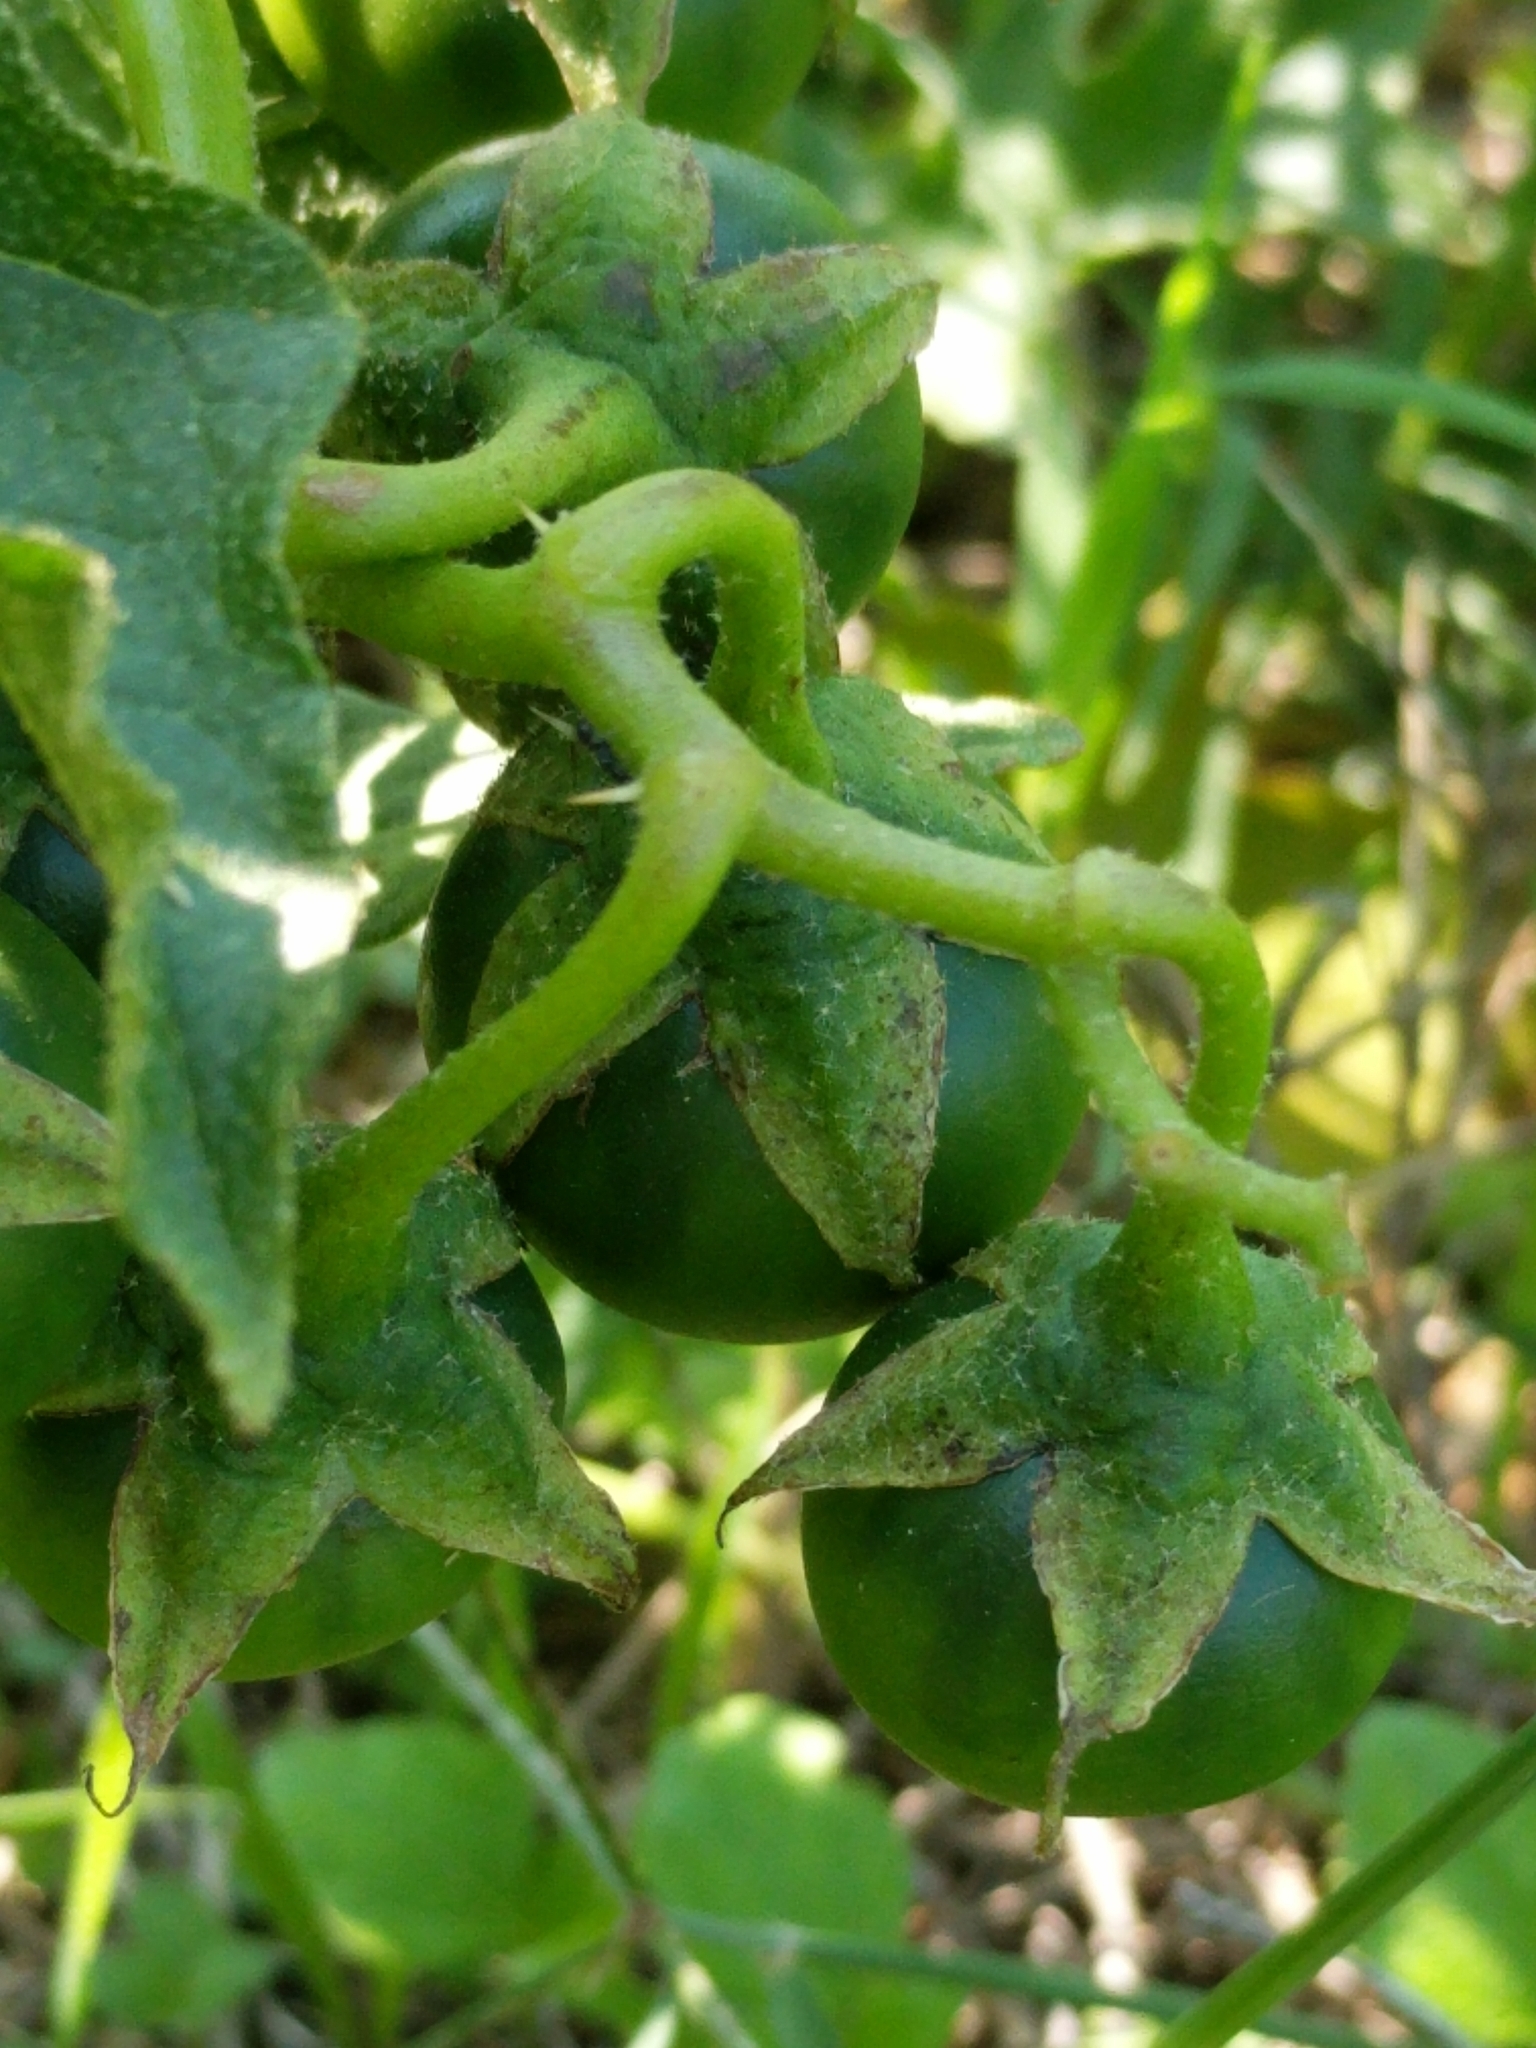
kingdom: Plantae
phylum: Tracheophyta
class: Magnoliopsida
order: Solanales
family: Solanaceae
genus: Solanum
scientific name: Solanum dimidiatum
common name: Carolina horse-nettle
